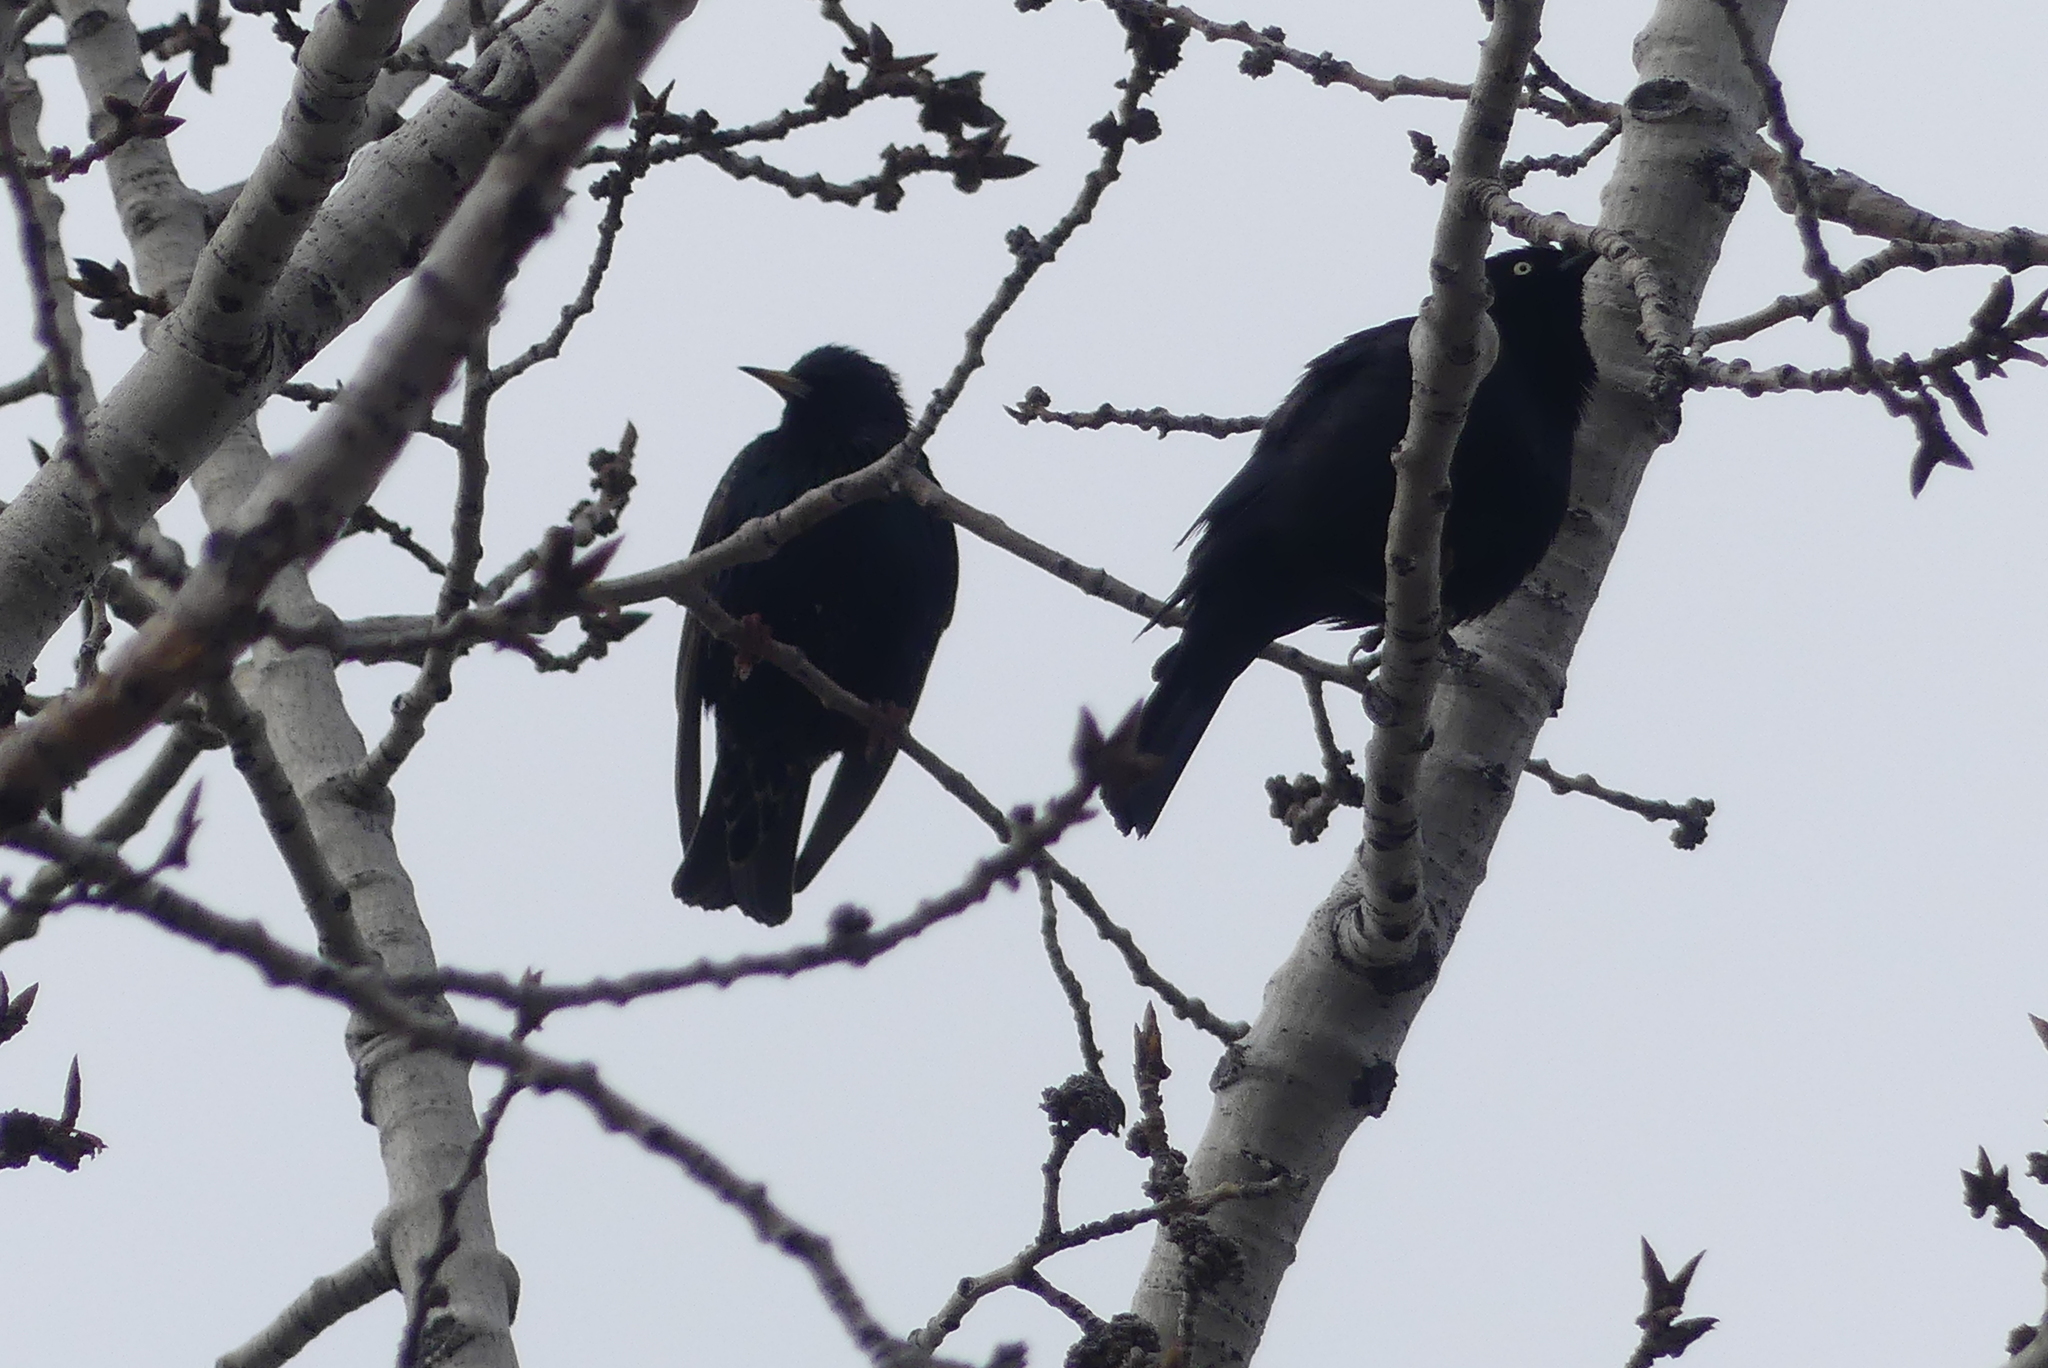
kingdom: Animalia
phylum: Chordata
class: Aves
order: Passeriformes
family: Sturnidae
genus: Sturnus
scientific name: Sturnus vulgaris
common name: Common starling
